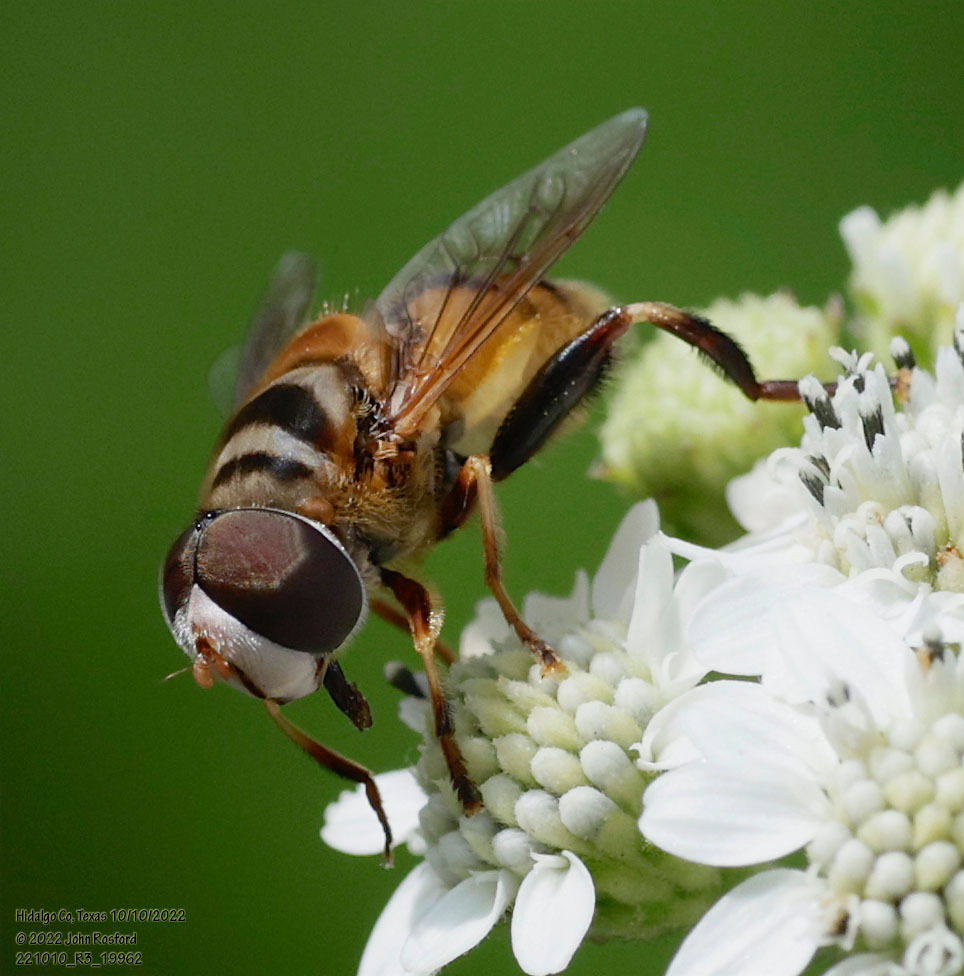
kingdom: Animalia
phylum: Arthropoda
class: Insecta
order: Diptera
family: Syrphidae
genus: Palpada
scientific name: Palpada vinetorum
